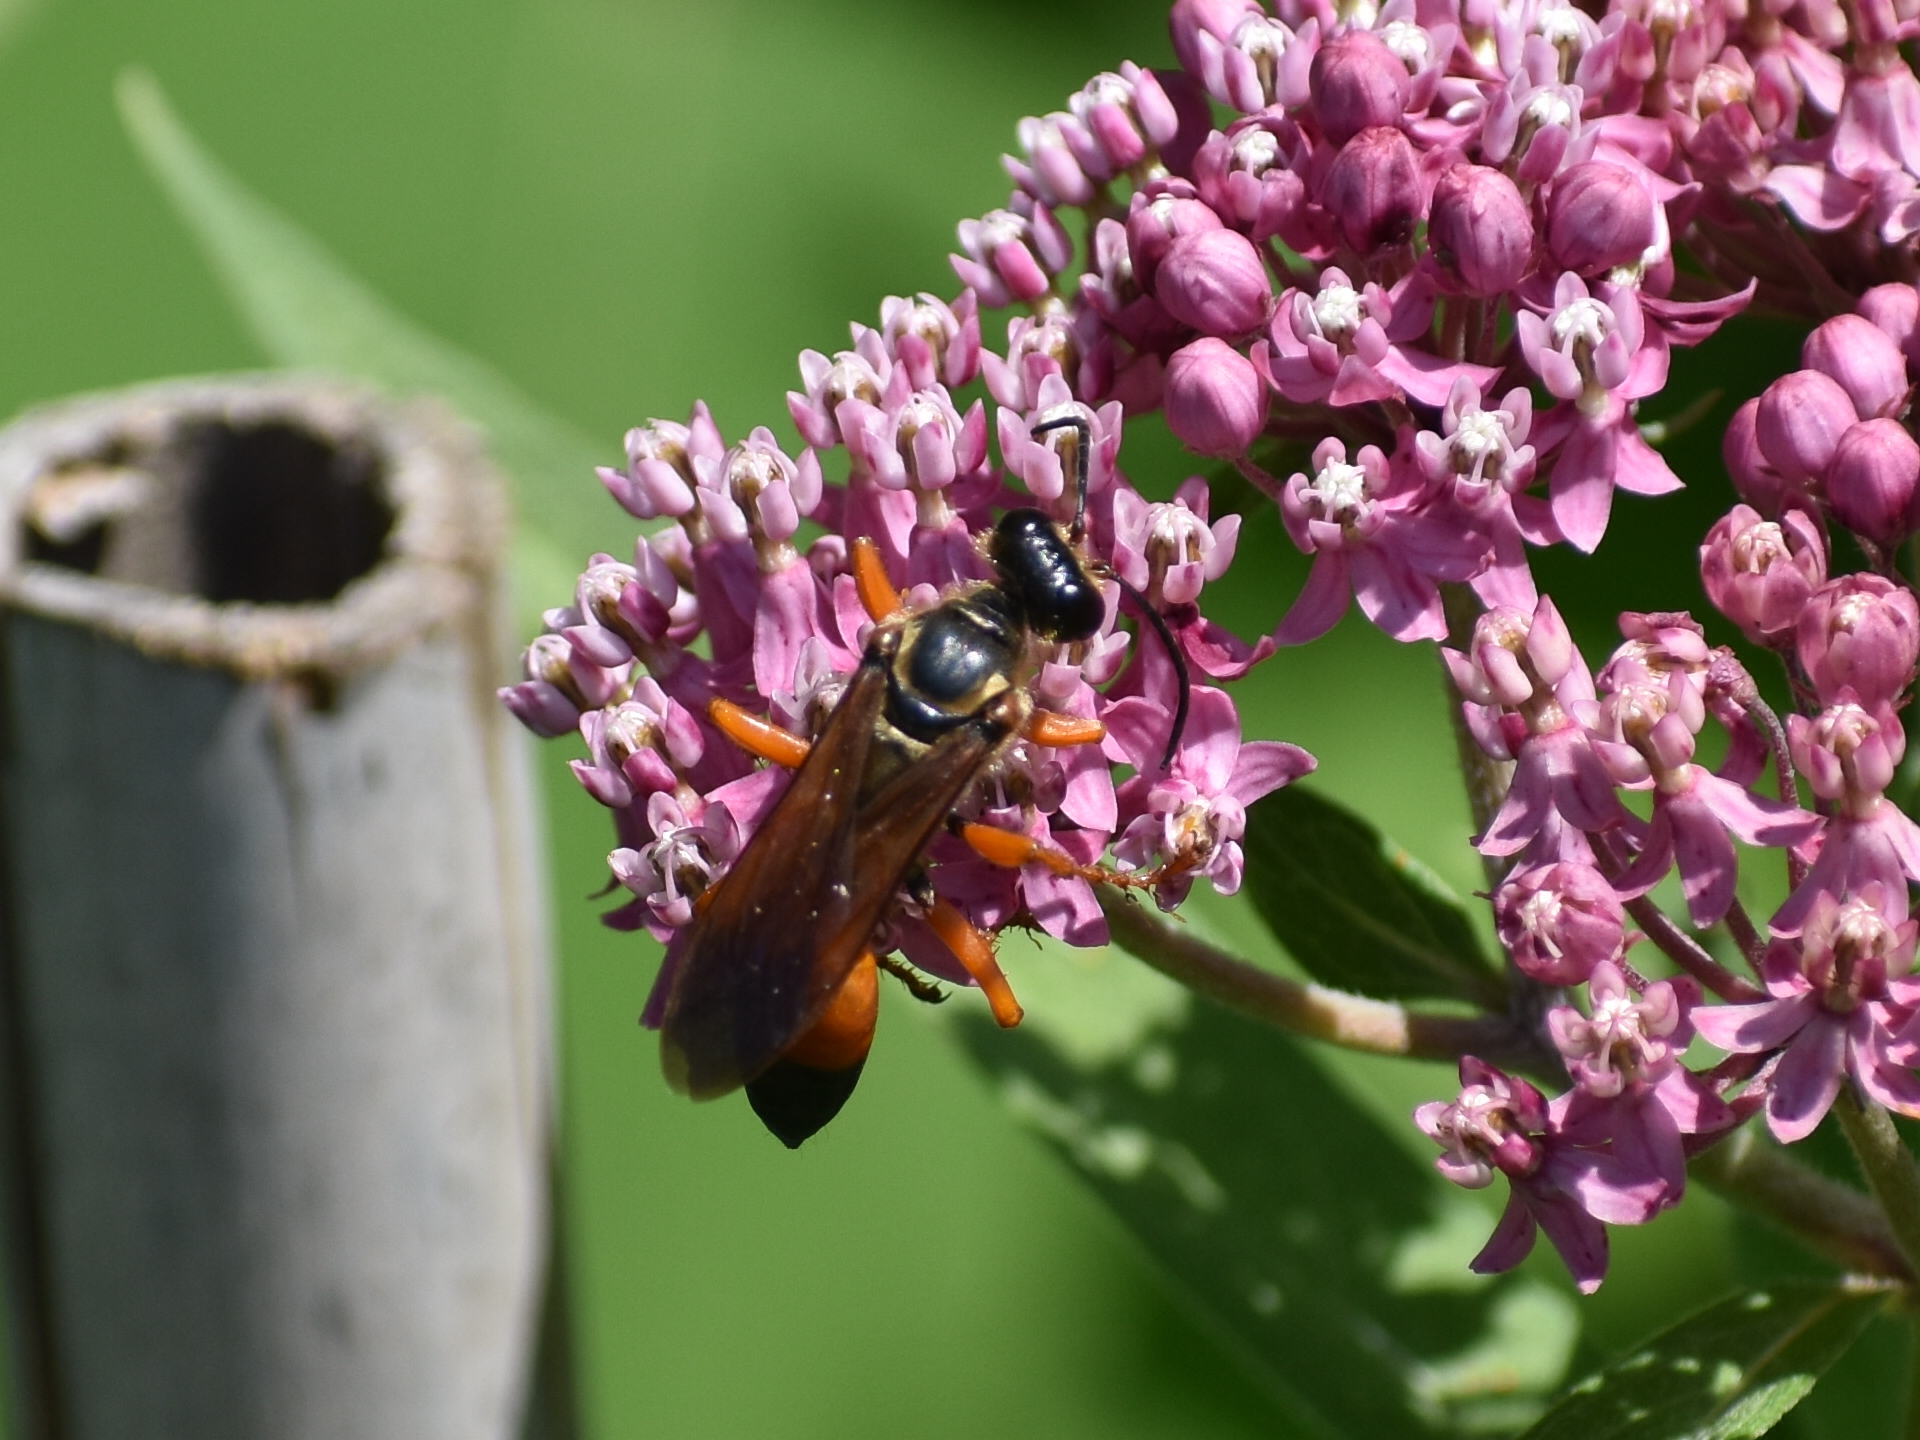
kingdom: Animalia
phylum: Arthropoda
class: Insecta
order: Hymenoptera
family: Sphecidae
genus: Sphex
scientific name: Sphex ichneumoneus
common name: Great golden digger wasp
